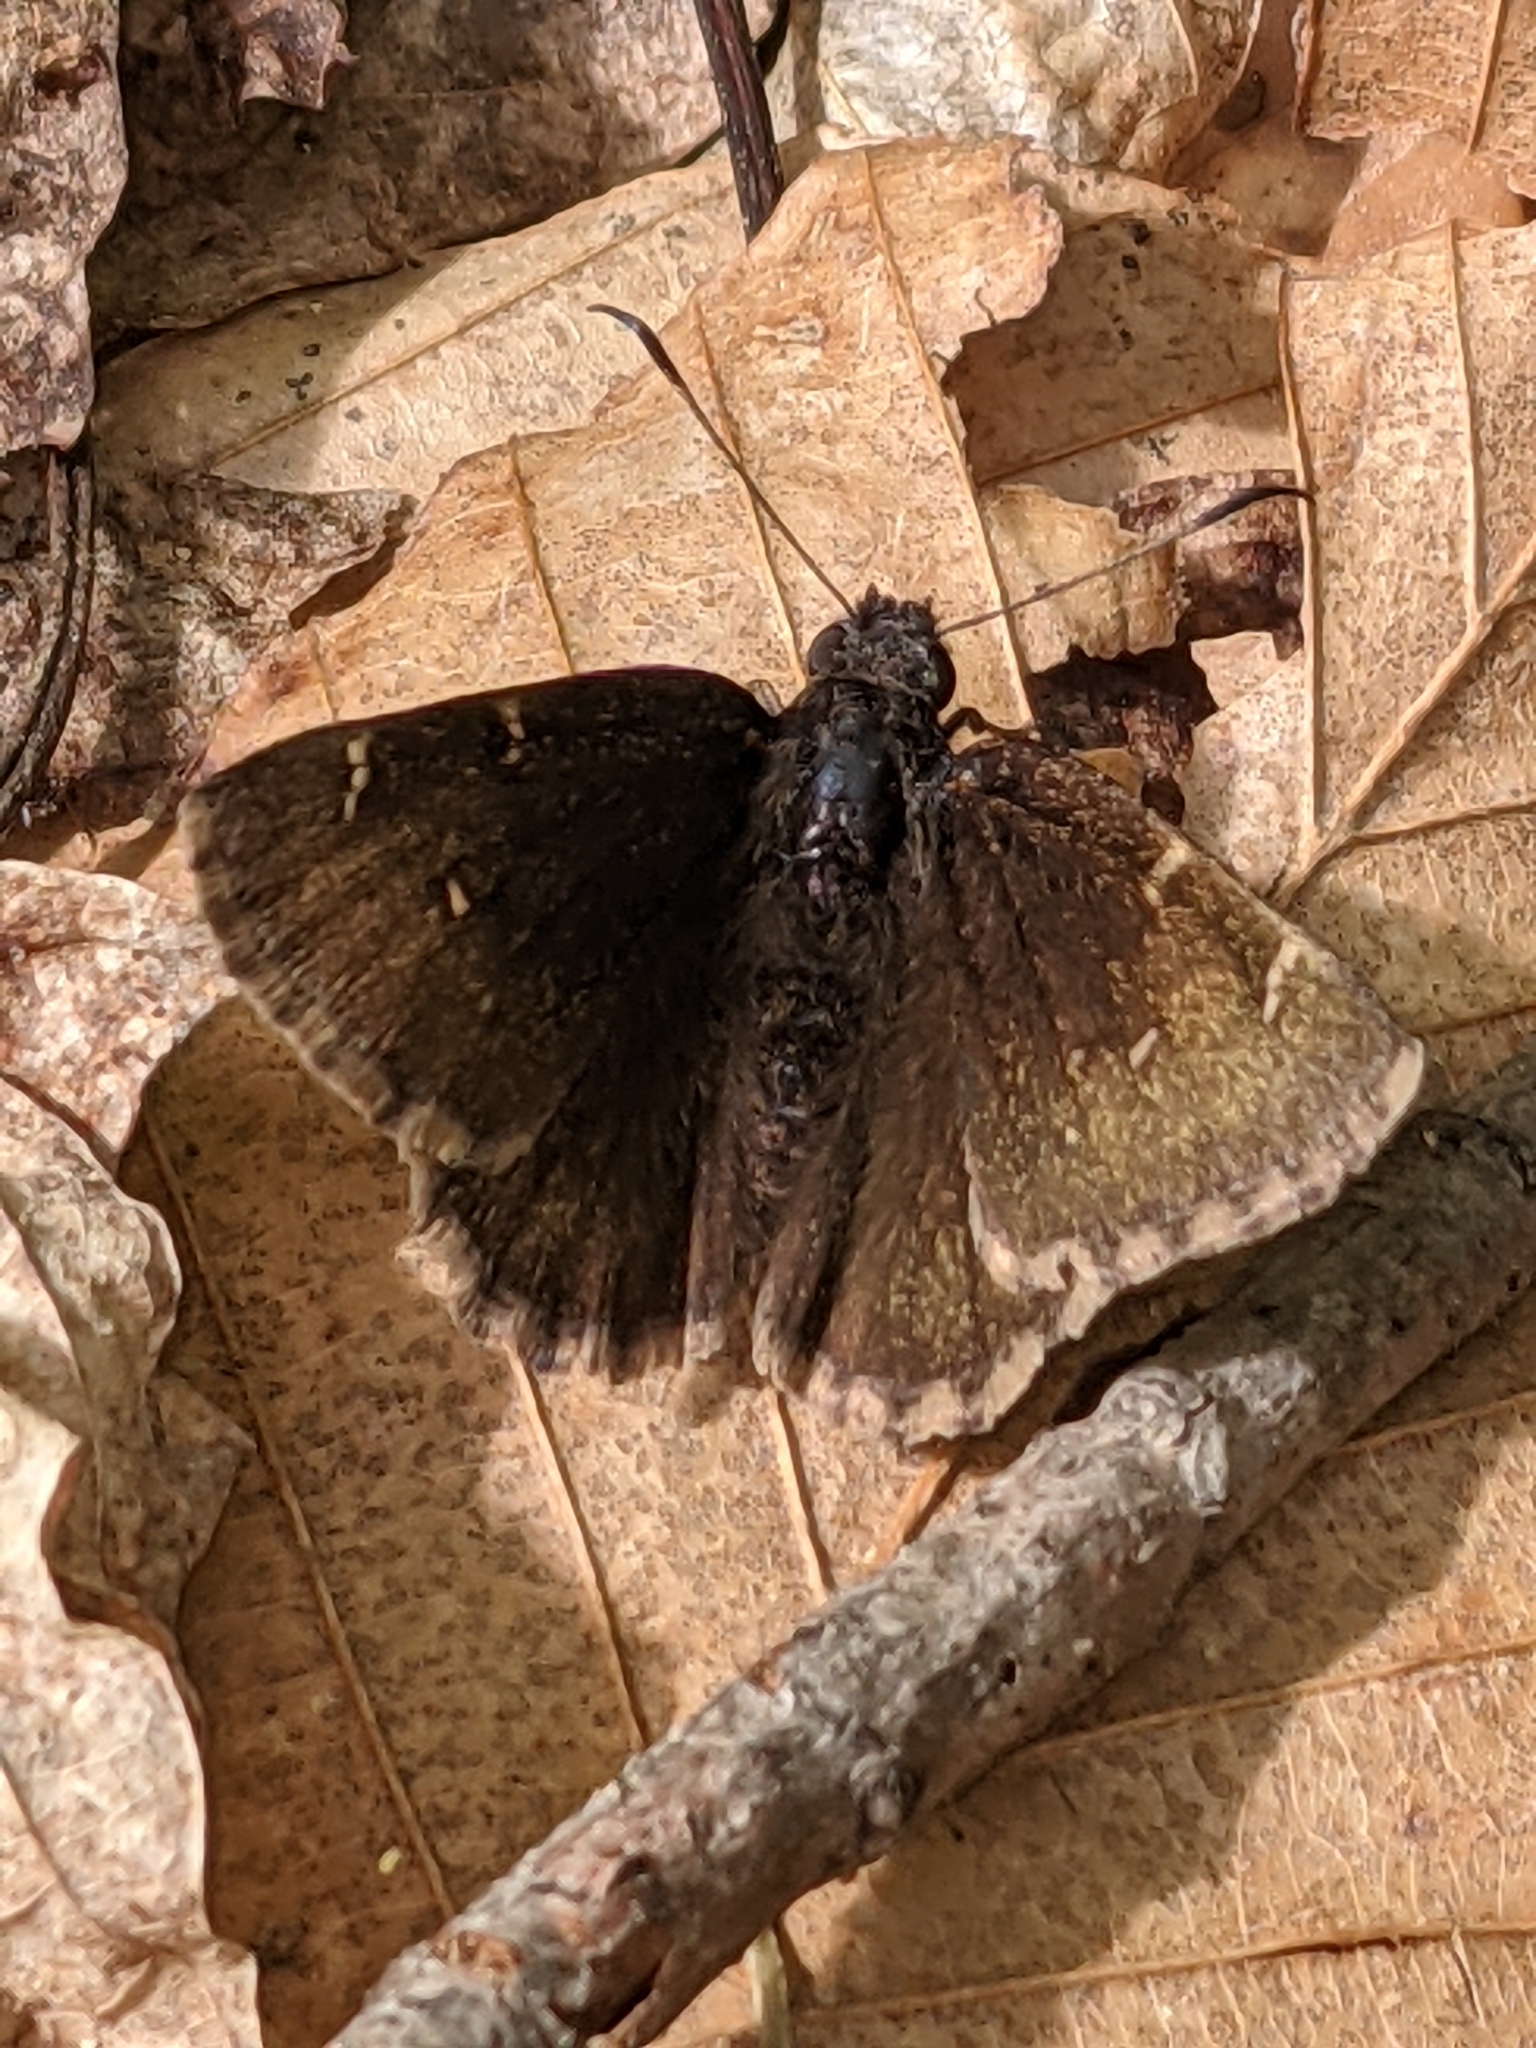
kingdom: Animalia
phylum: Arthropoda
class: Insecta
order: Lepidoptera
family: Hesperiidae
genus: Thorybes
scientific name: Thorybes pylades
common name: Northern cloudywing
